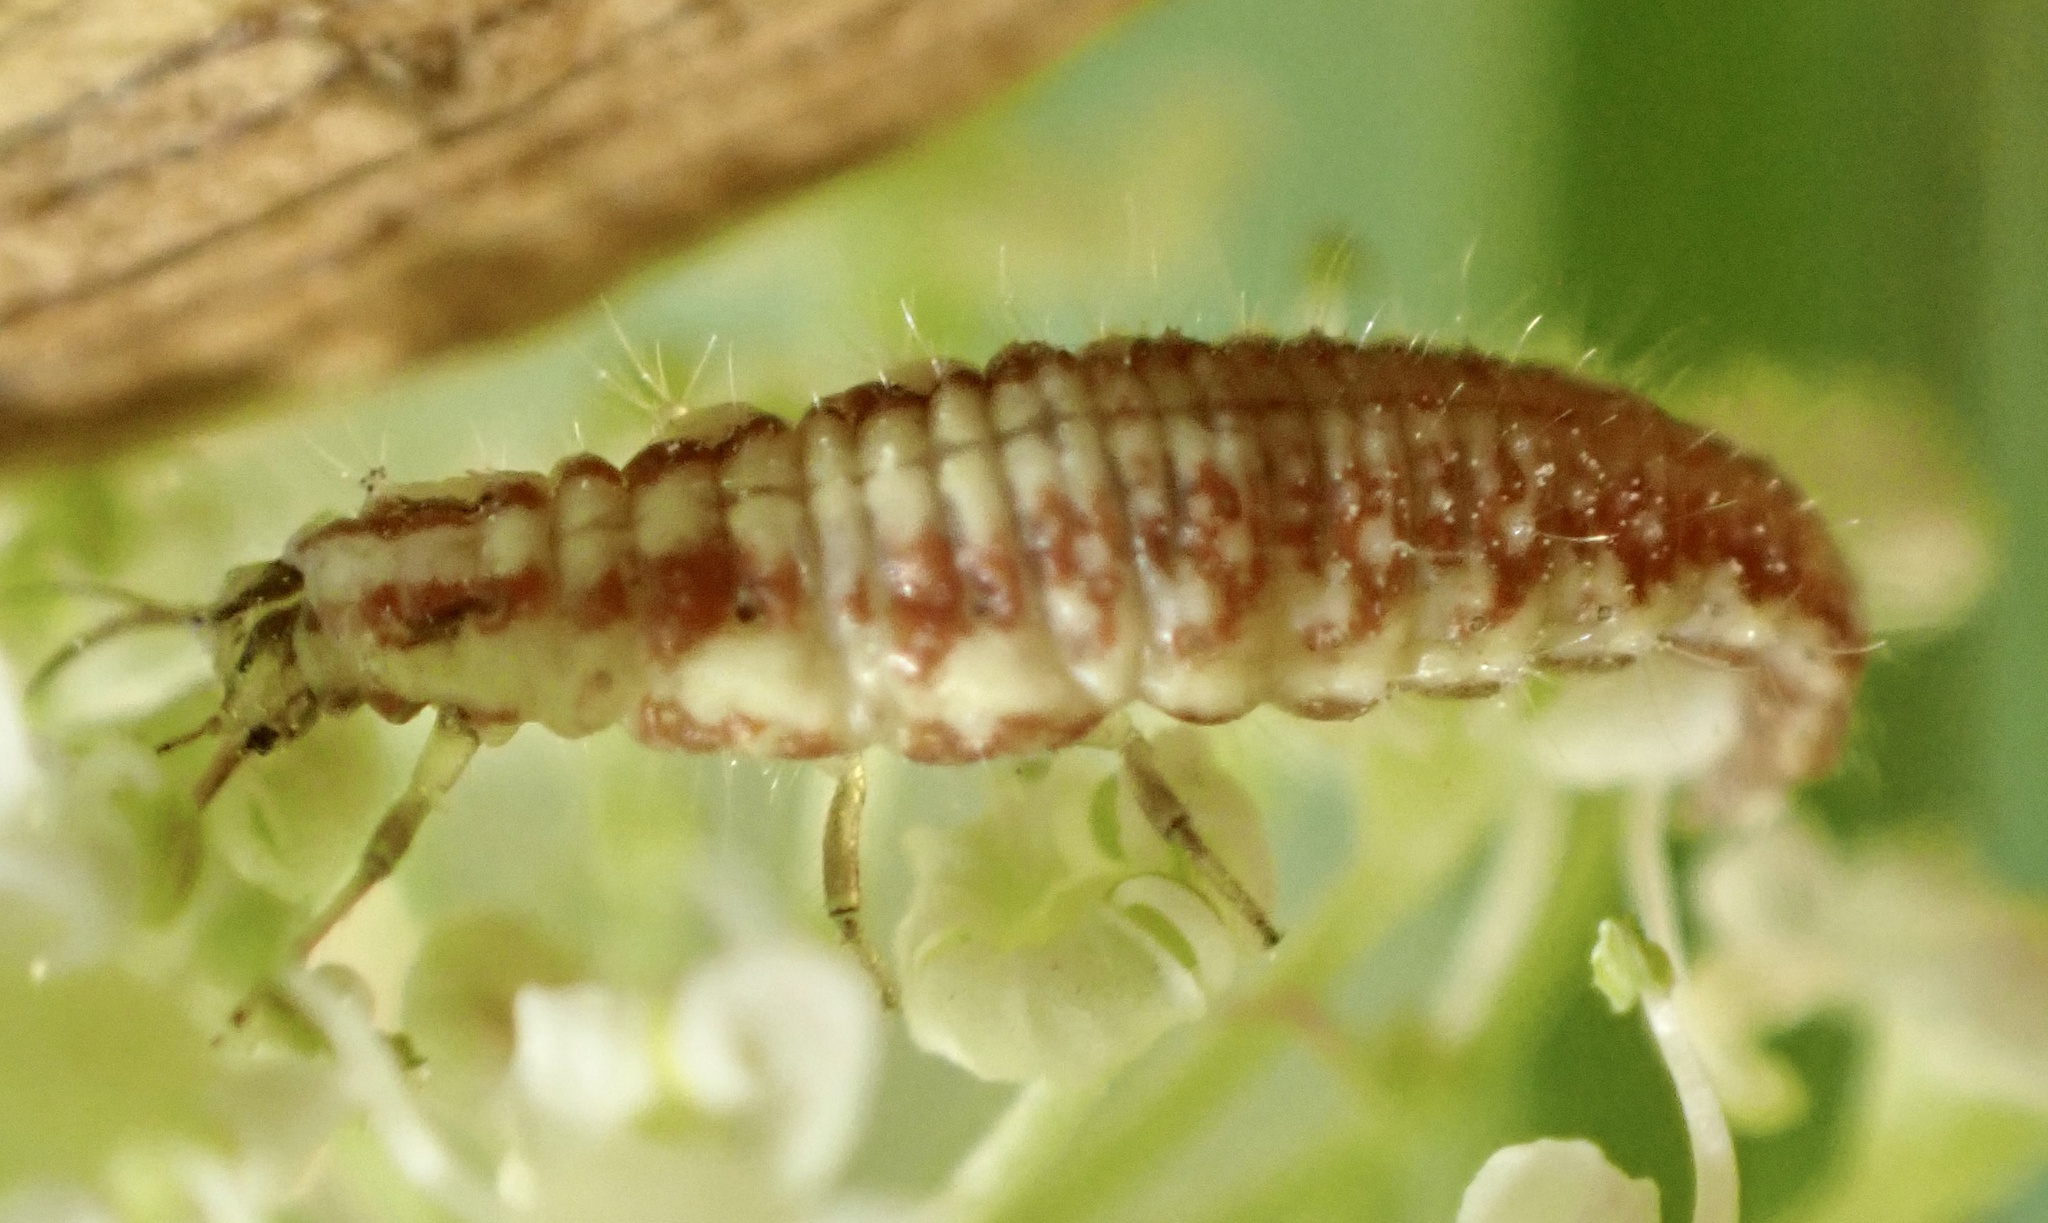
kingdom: Animalia
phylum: Arthropoda
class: Insecta
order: Neuroptera
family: Chrysopidae
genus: Chrysoperla
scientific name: Chrysoperla
